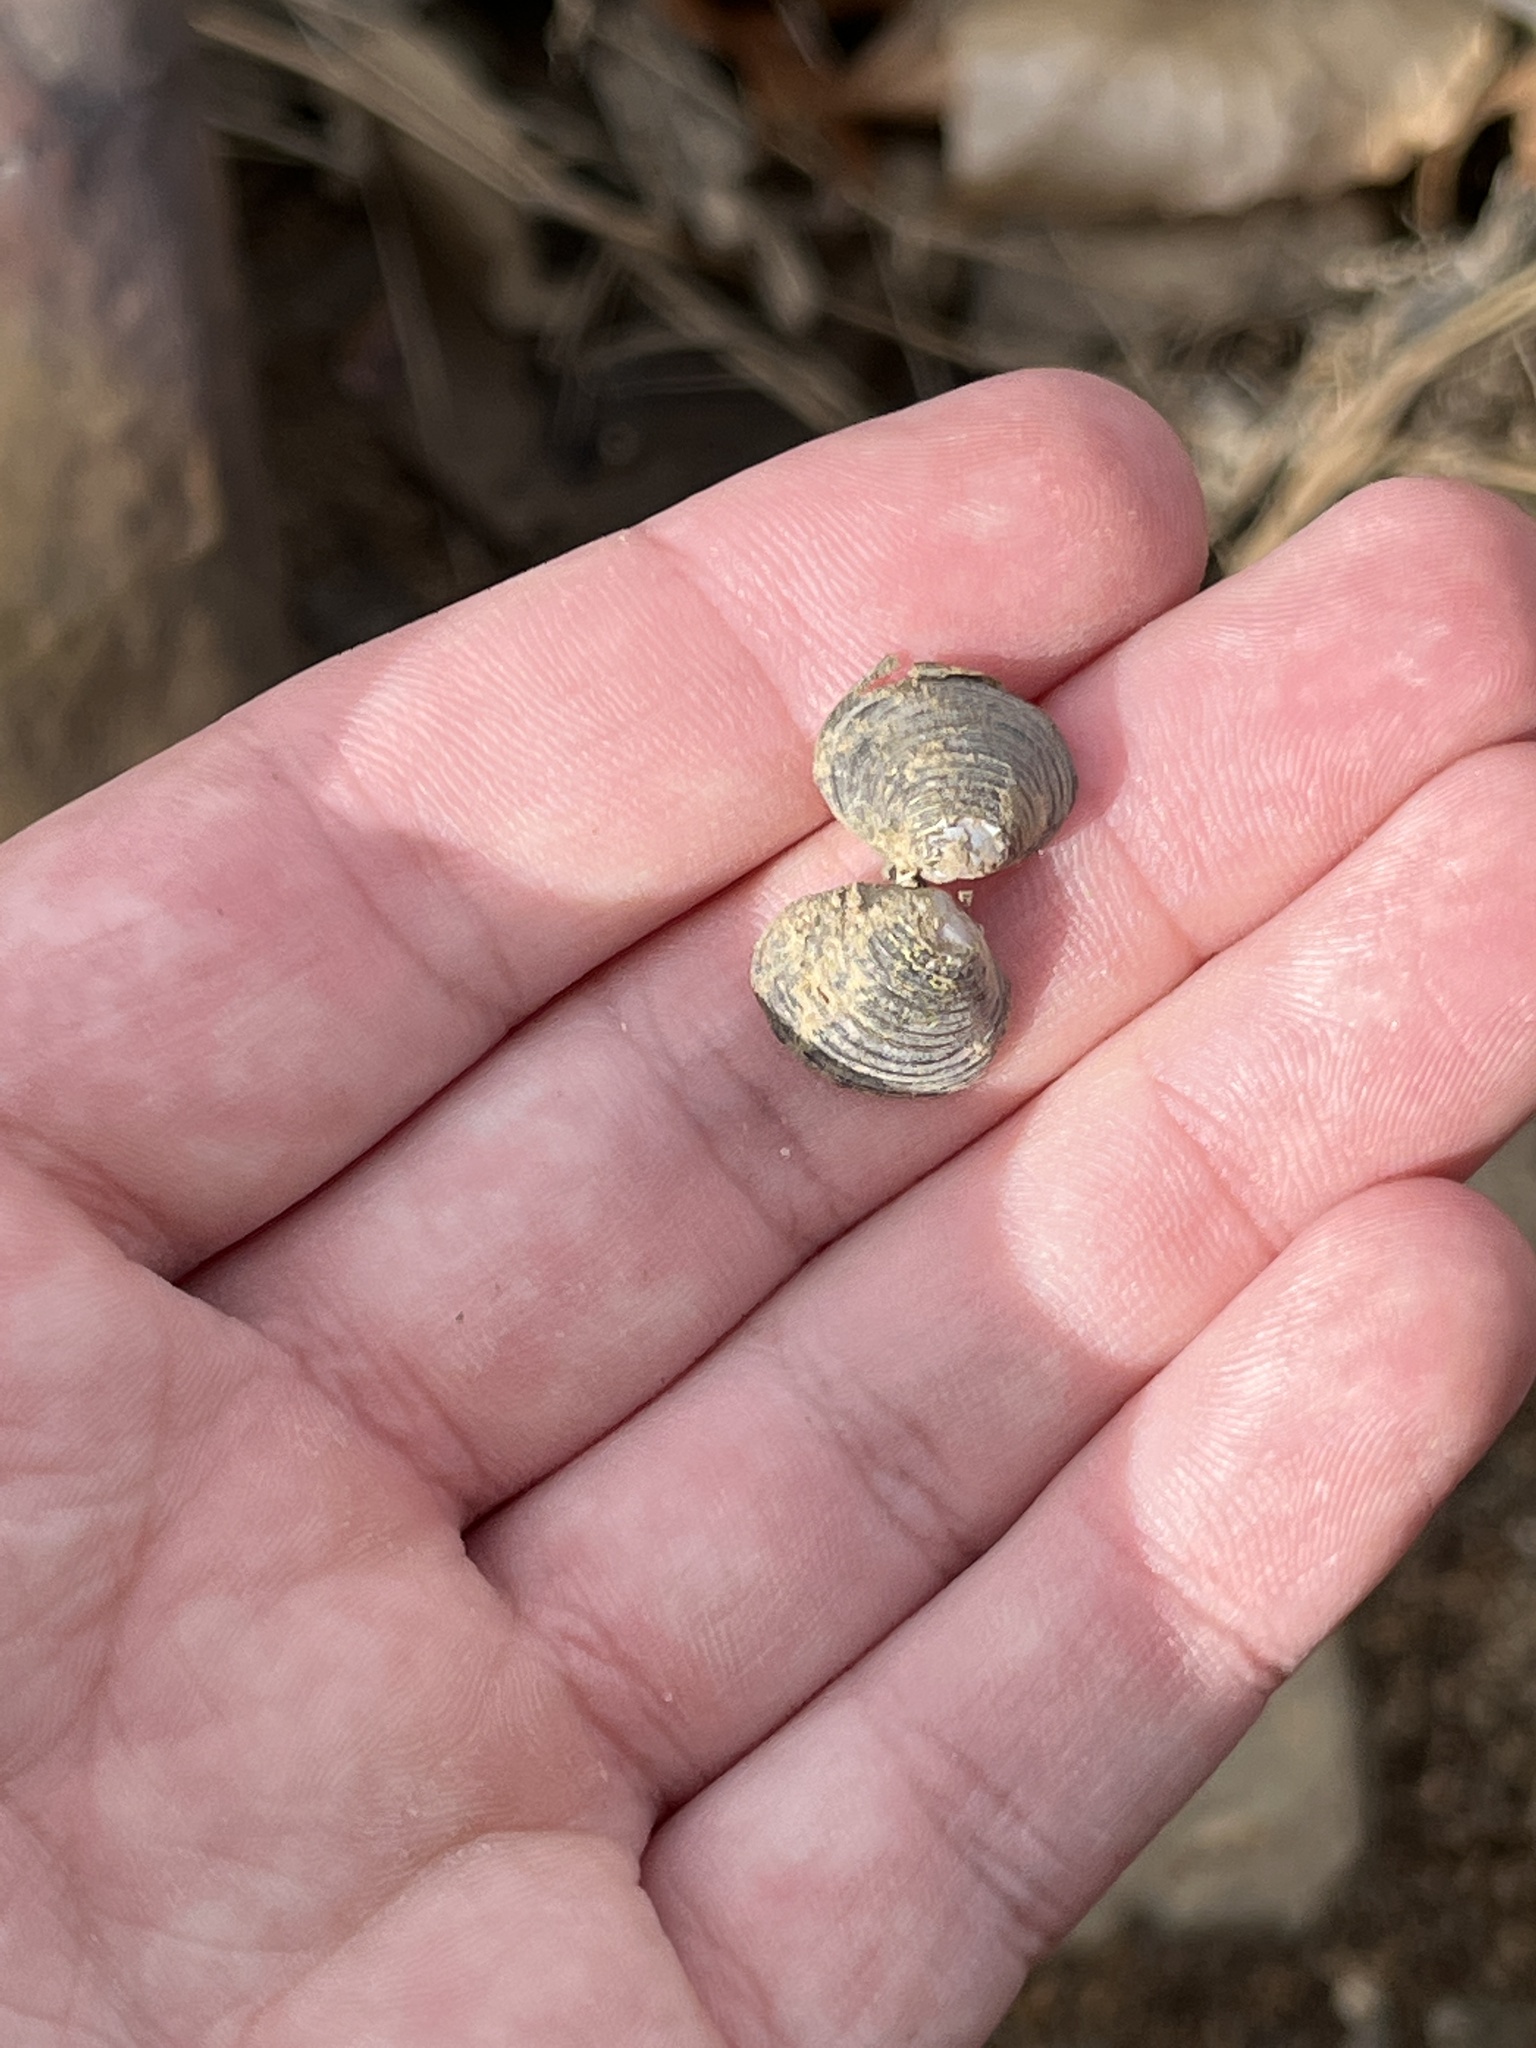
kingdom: Animalia
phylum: Mollusca
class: Bivalvia
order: Venerida
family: Cyrenidae
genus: Corbicula
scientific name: Corbicula fluminea
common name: Asian clam
